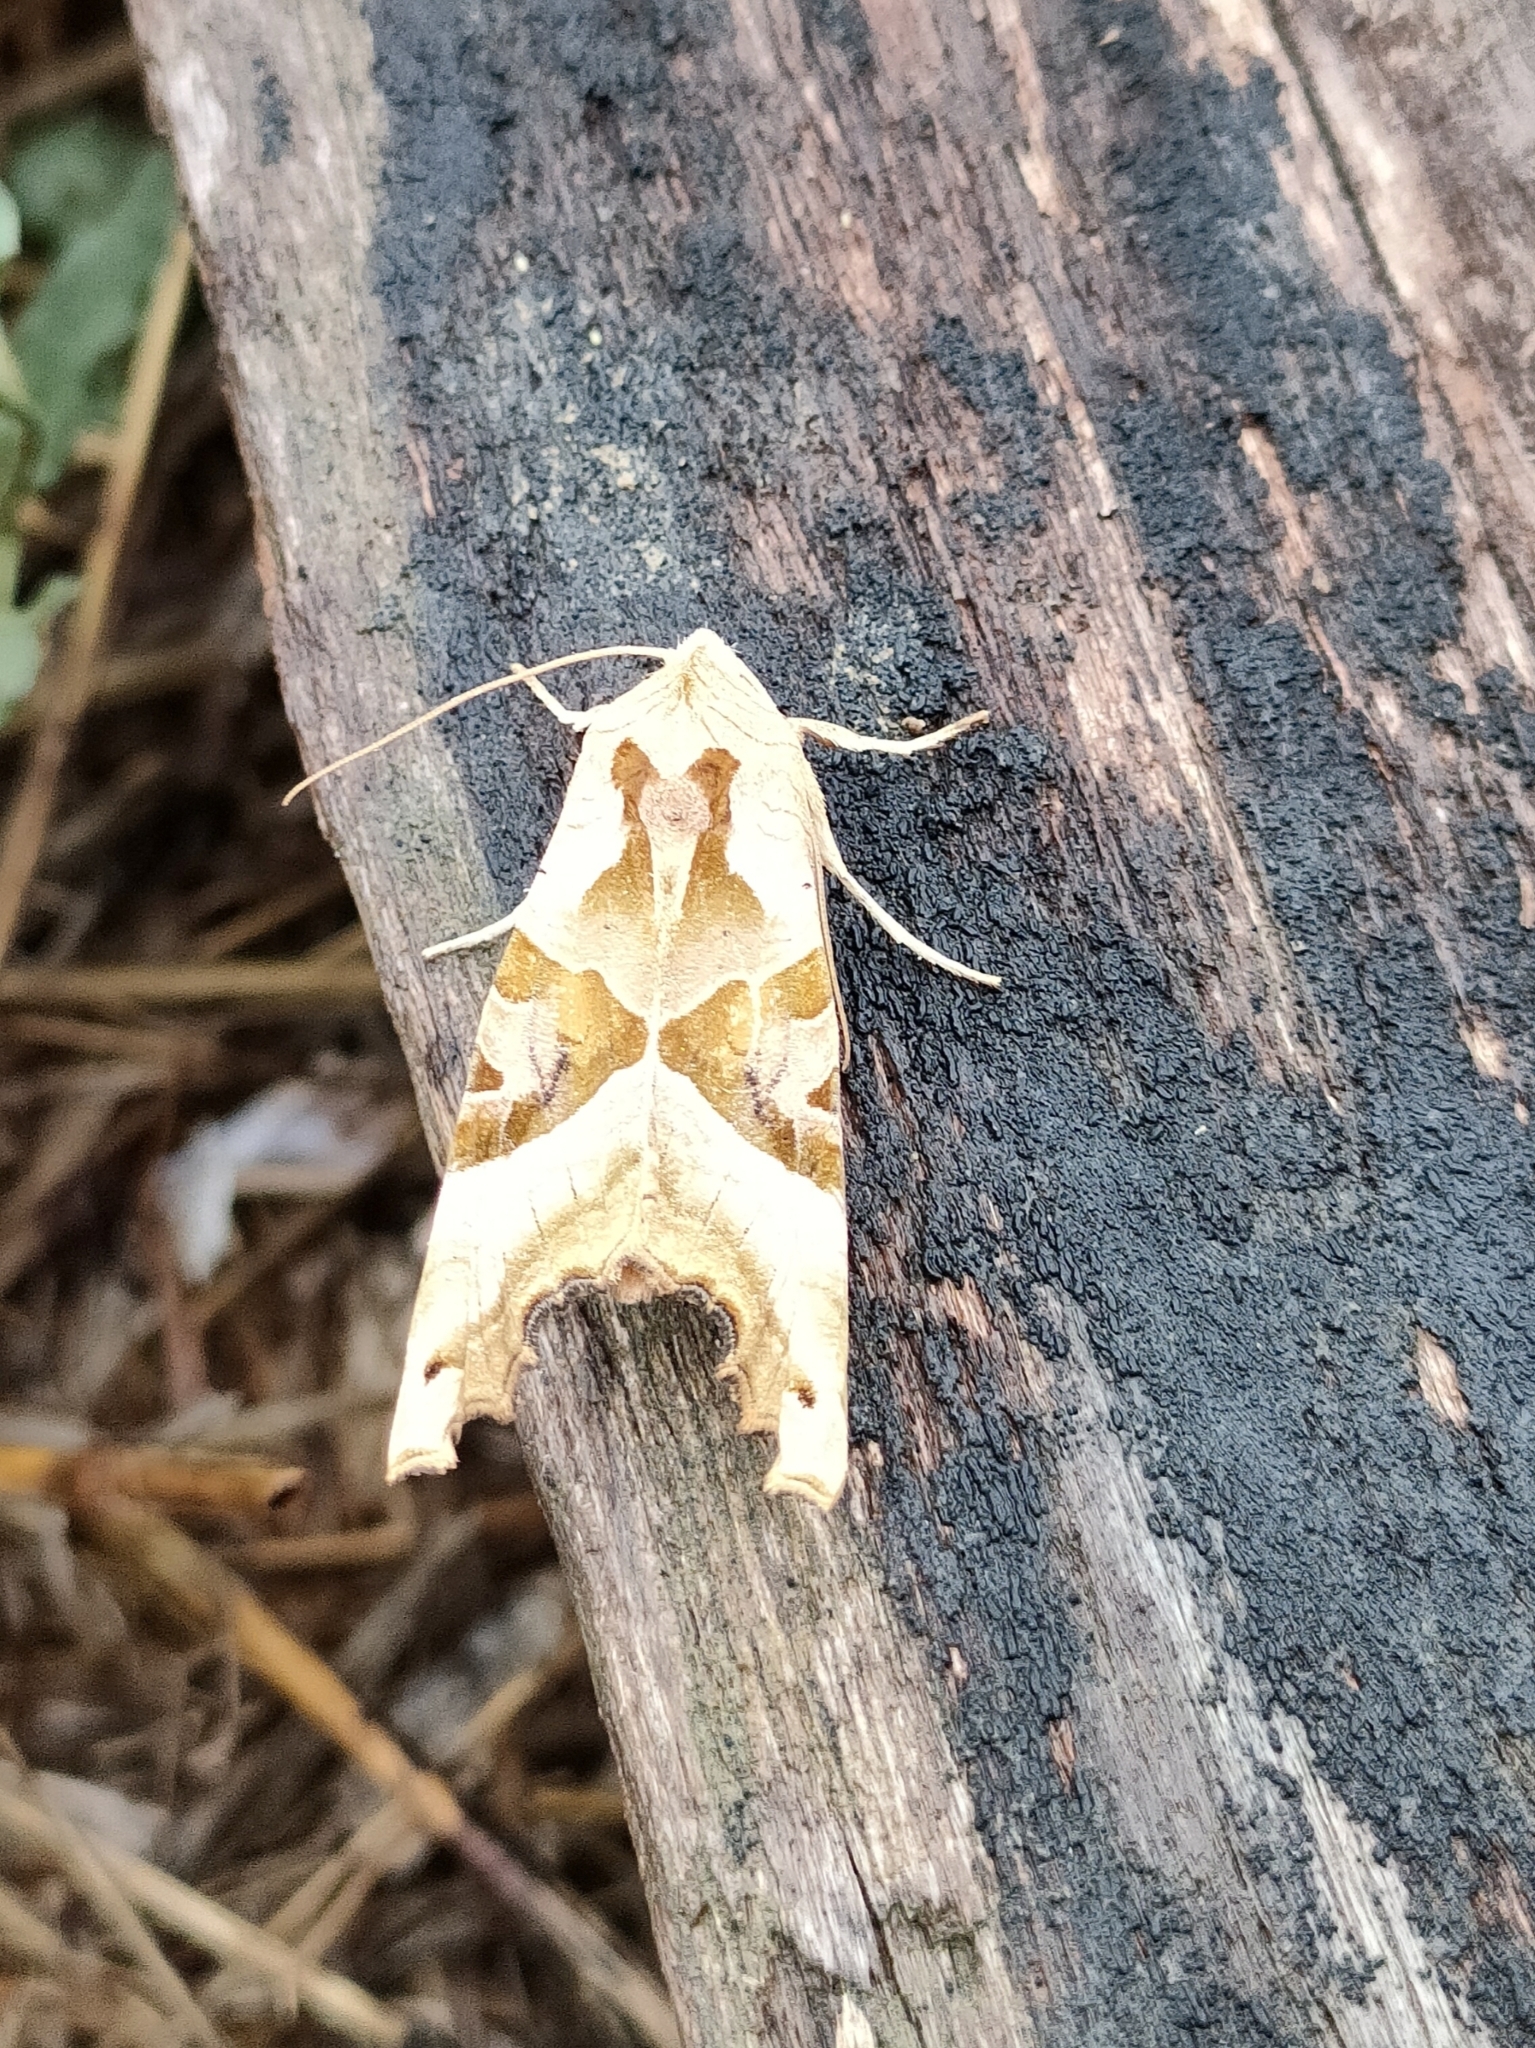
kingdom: Animalia
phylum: Arthropoda
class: Insecta
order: Lepidoptera
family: Noctuidae
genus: Phlogophora
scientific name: Phlogophora meticulosa
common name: Angle shades
